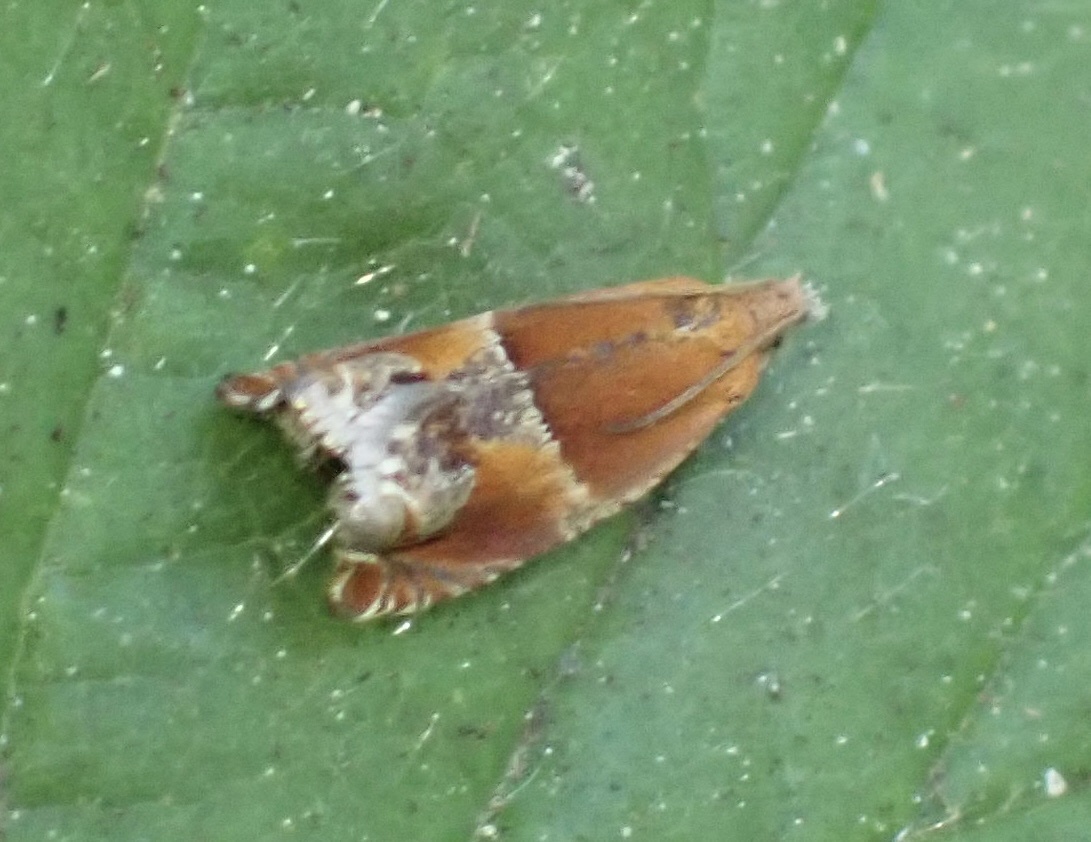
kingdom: Animalia
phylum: Arthropoda
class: Insecta
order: Lepidoptera
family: Tortricidae
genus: Ancylis
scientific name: Ancylis obtusana
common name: Small buckthorn roller
